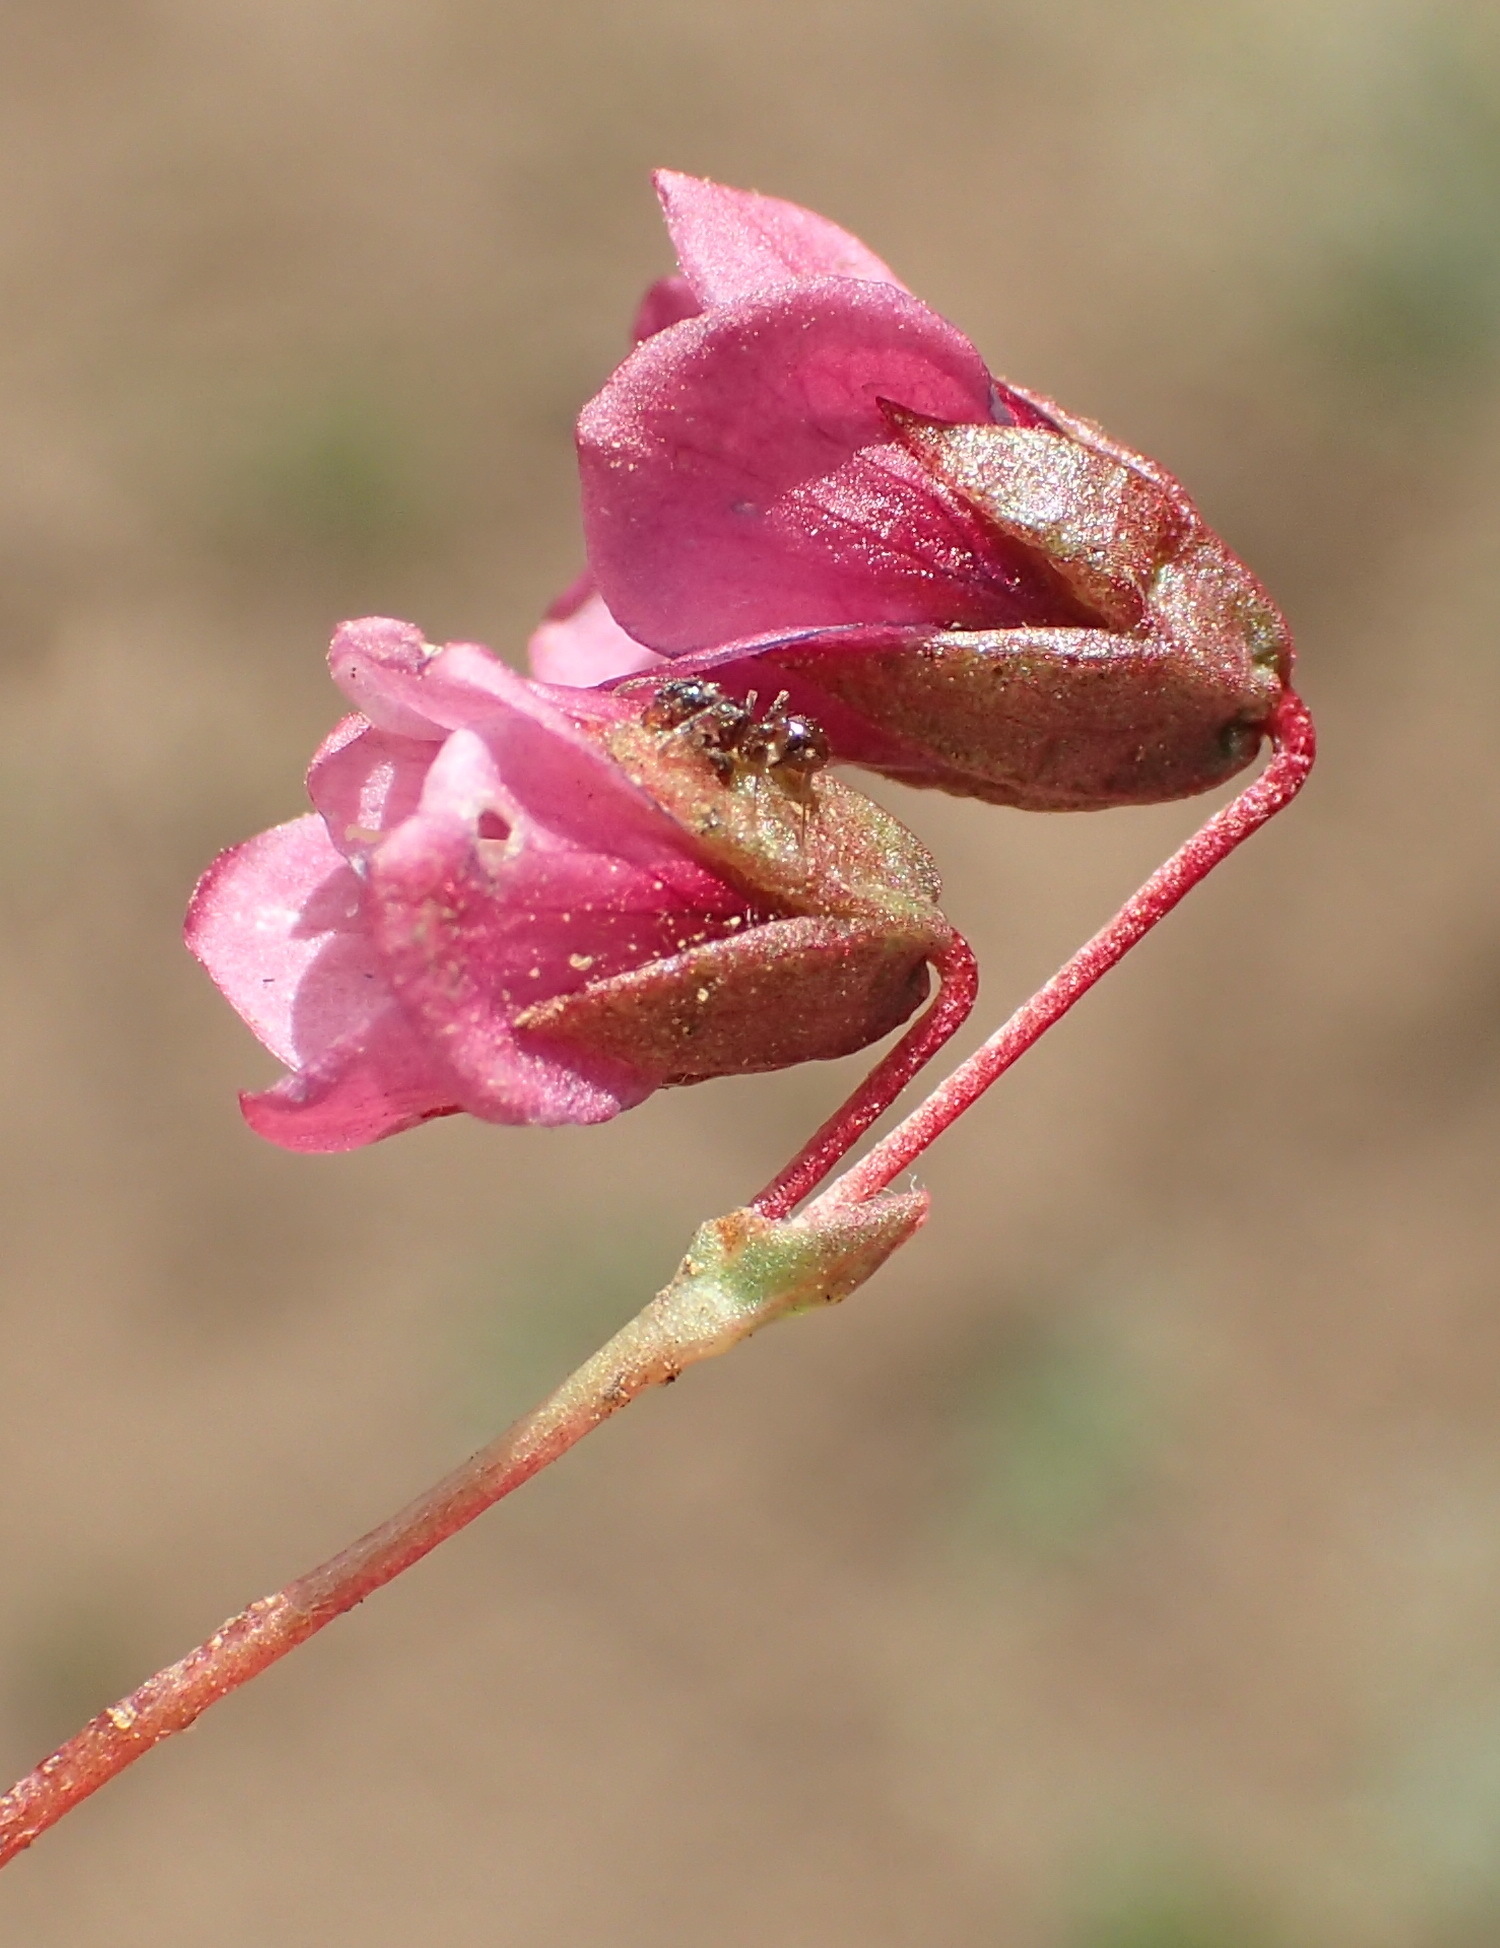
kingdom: Plantae
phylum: Tracheophyta
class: Magnoliopsida
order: Malvales
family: Malvaceae
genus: Hermannia
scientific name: Hermannia coccocarpa
